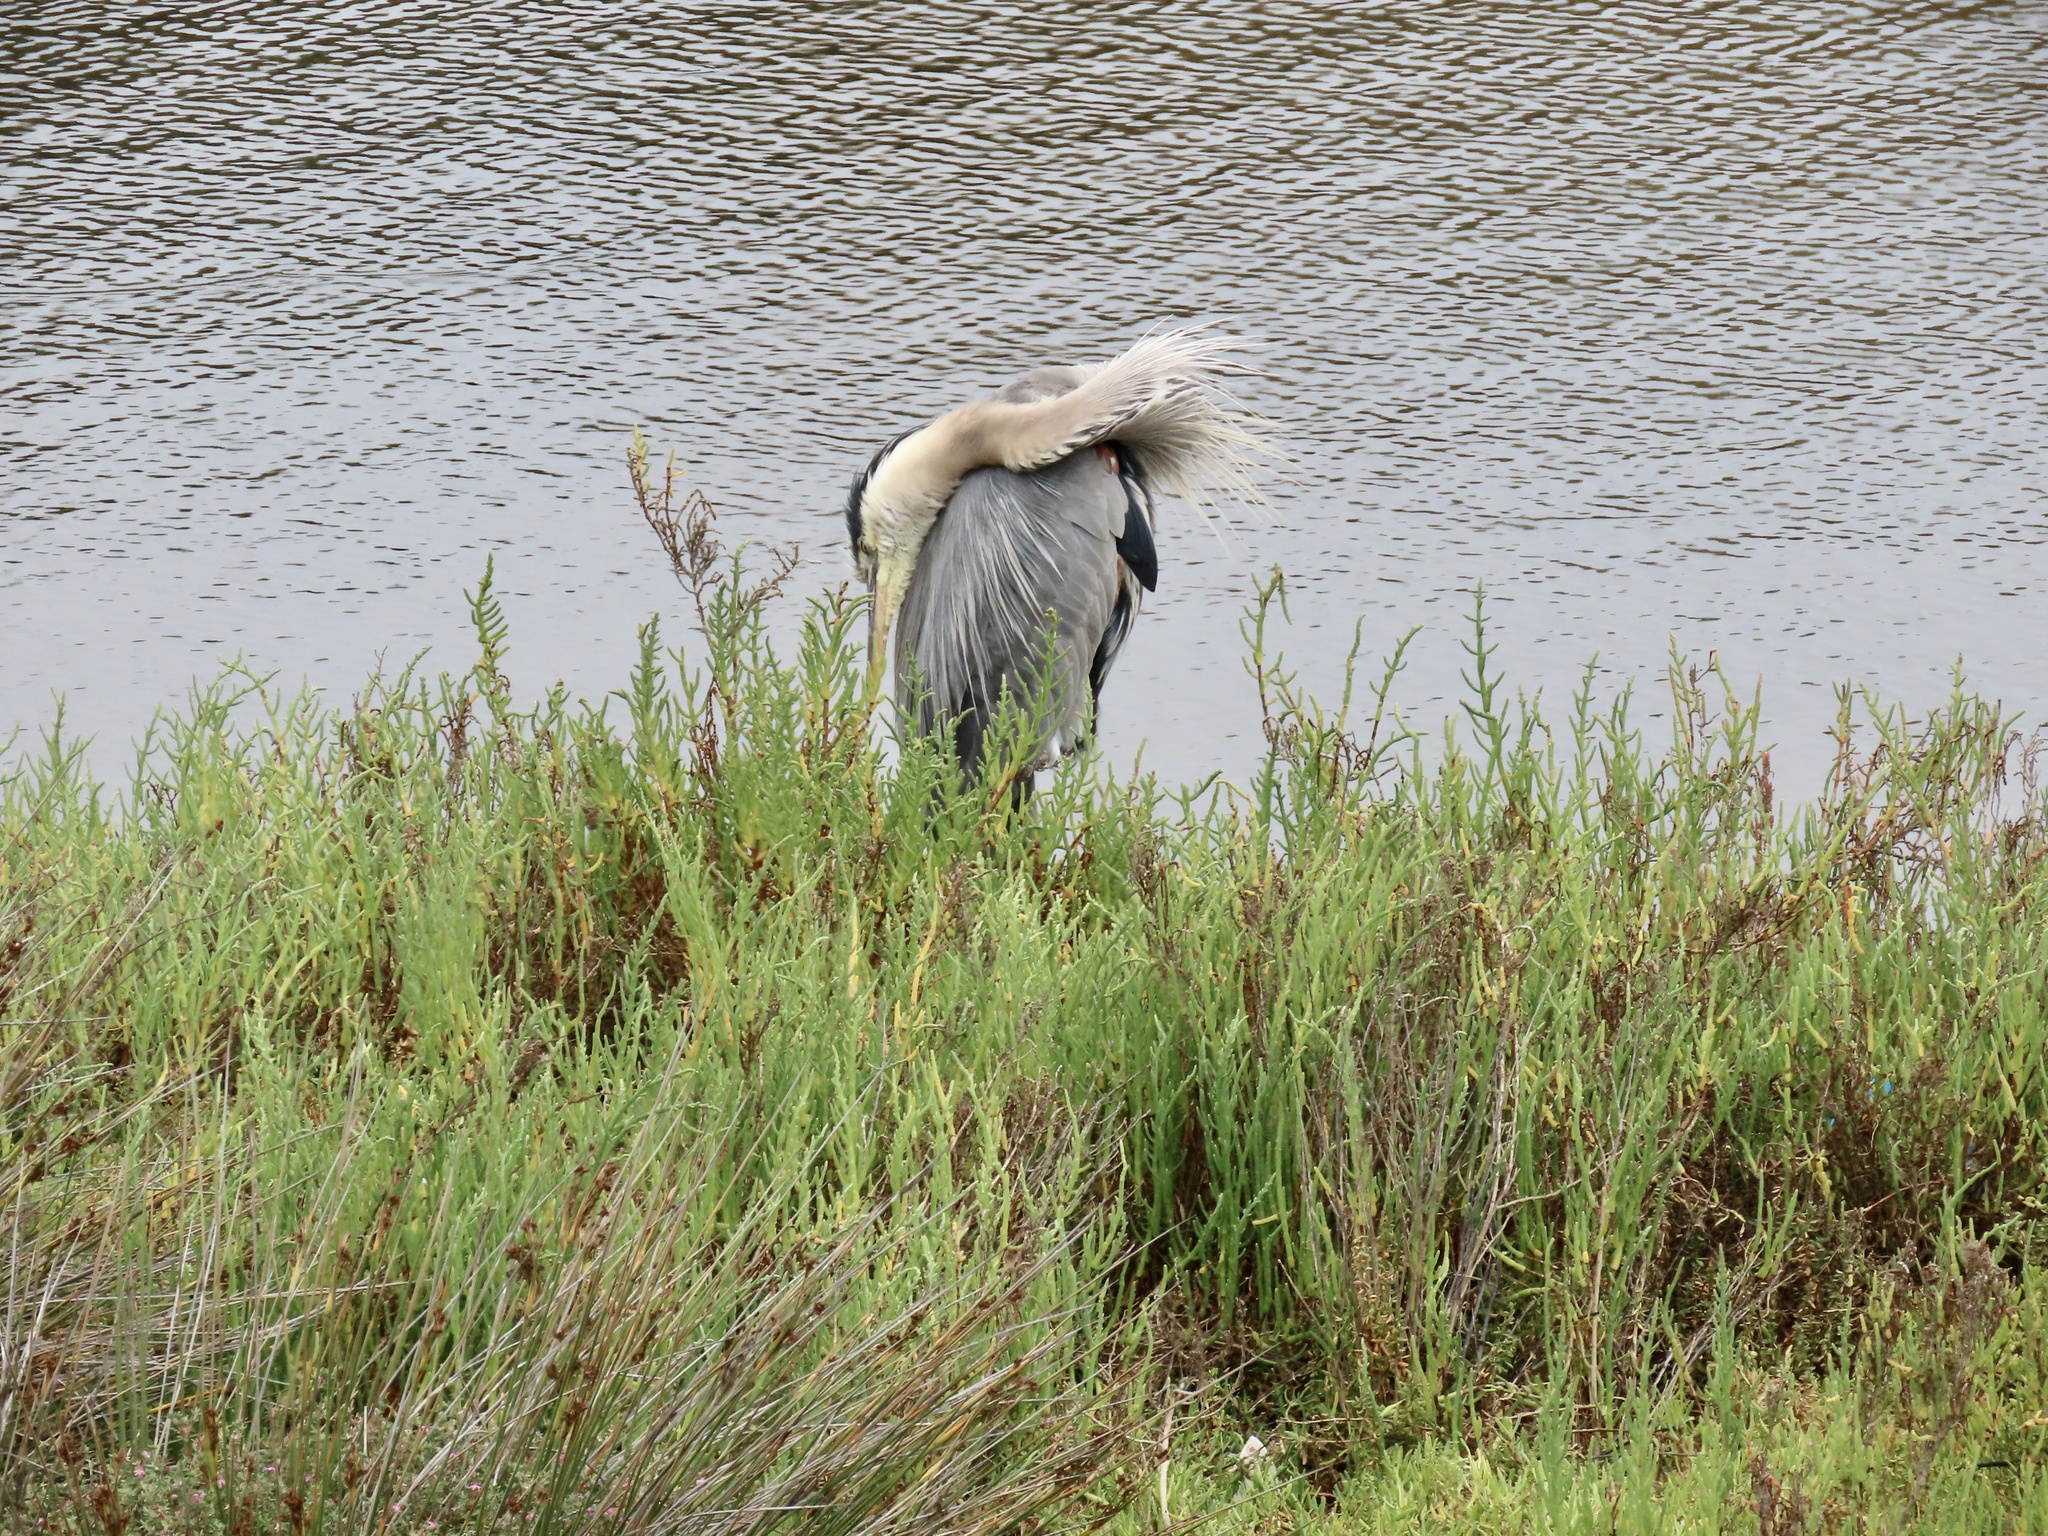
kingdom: Animalia
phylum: Chordata
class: Aves
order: Pelecaniformes
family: Ardeidae
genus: Ardea
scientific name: Ardea herodias
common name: Great blue heron
